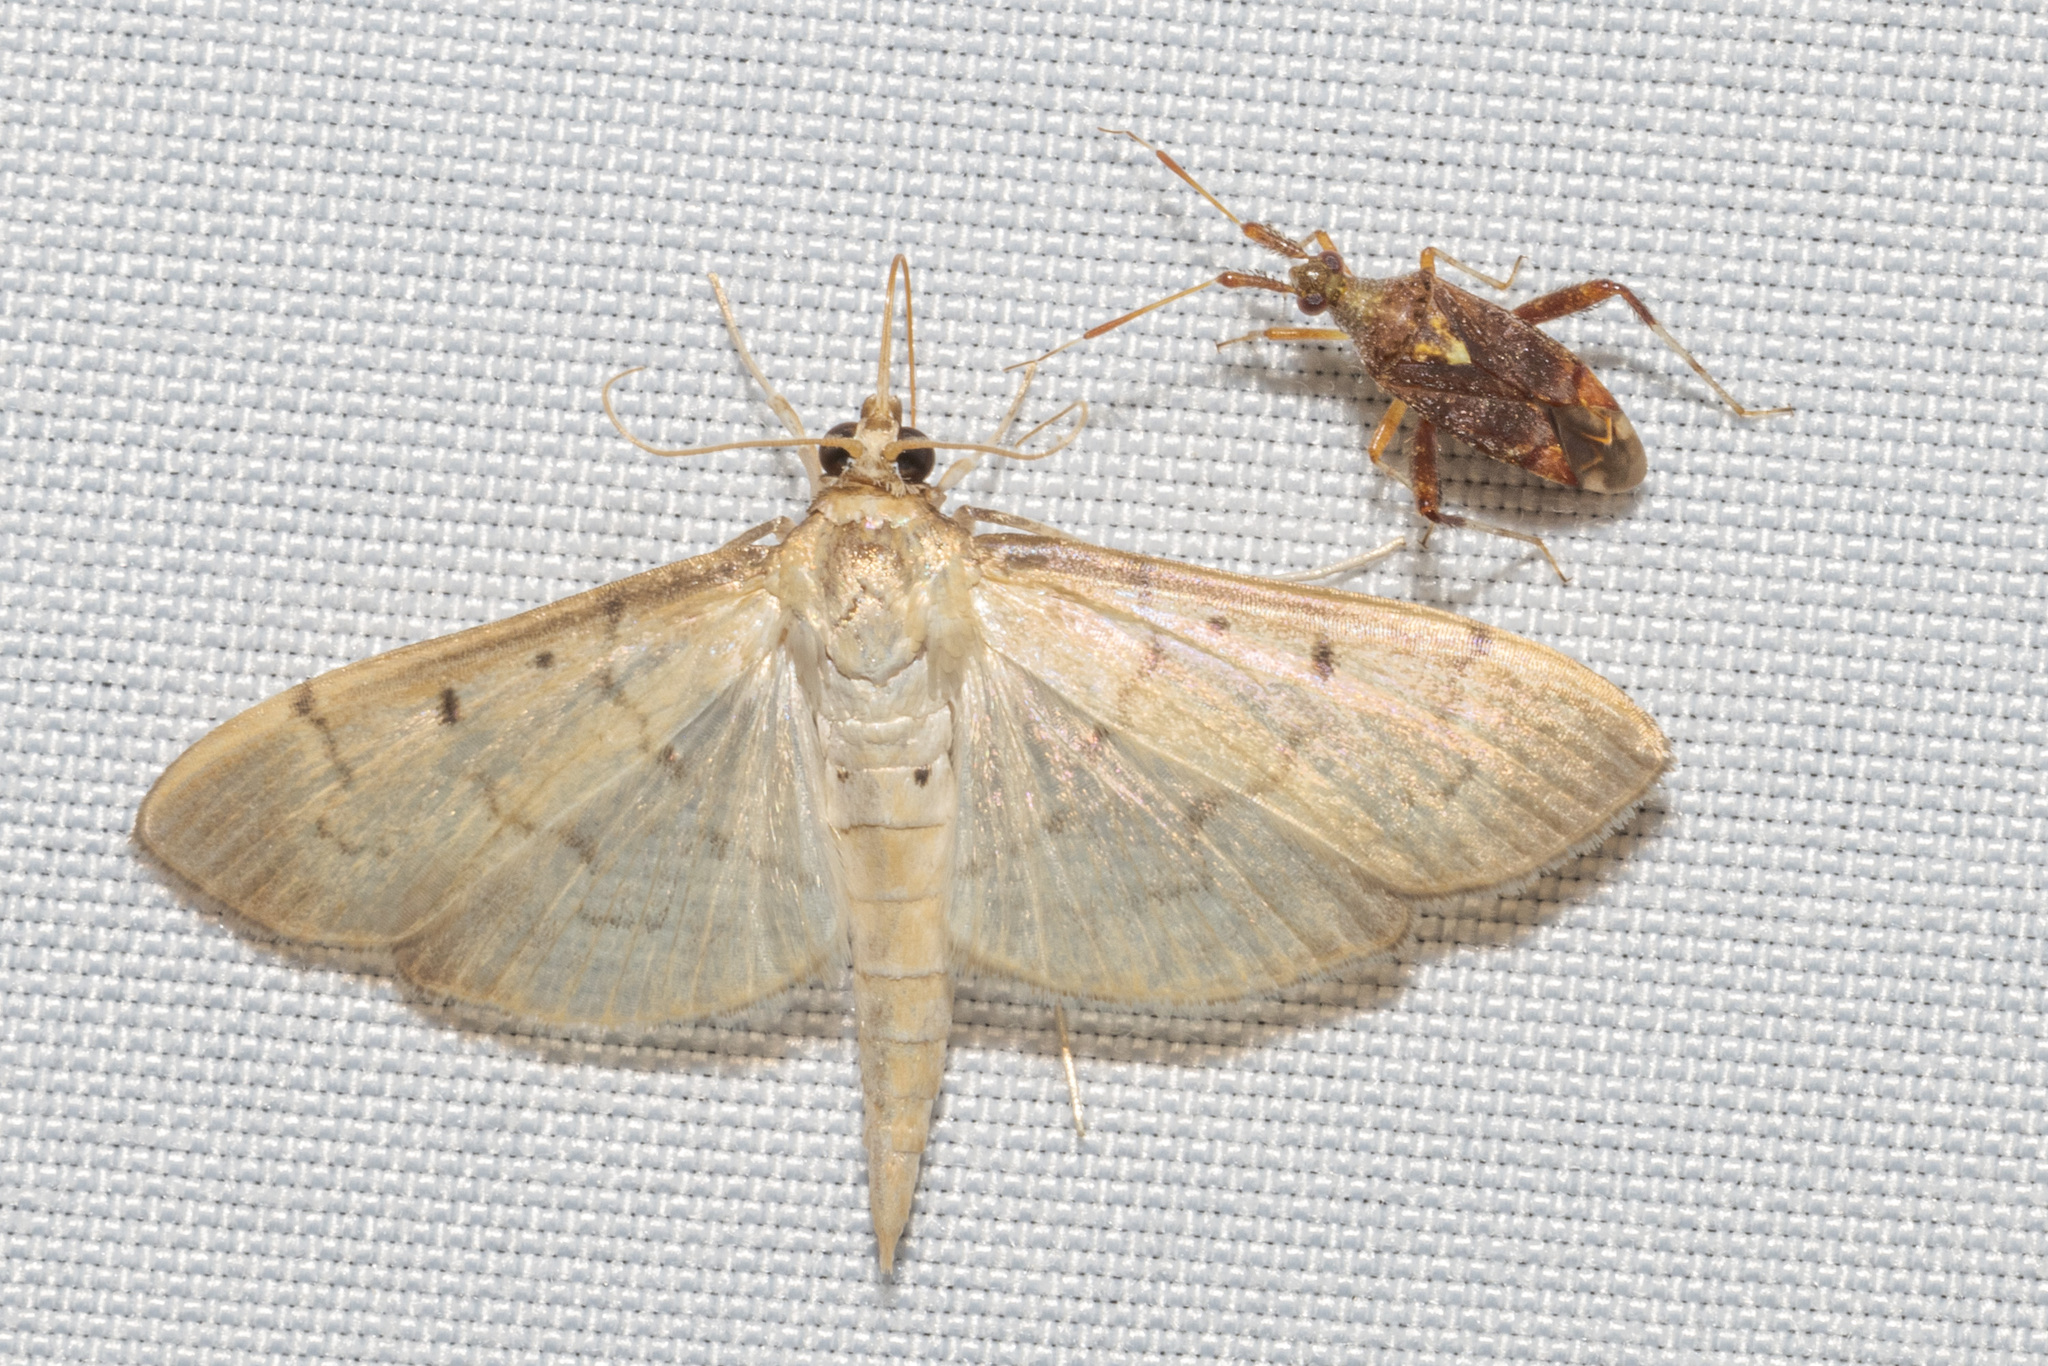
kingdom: Animalia
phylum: Arthropoda
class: Insecta
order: Lepidoptera
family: Crambidae
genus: Herpetogramma
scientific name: Herpetogramma bipunctalis
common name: Southern beet webworm
